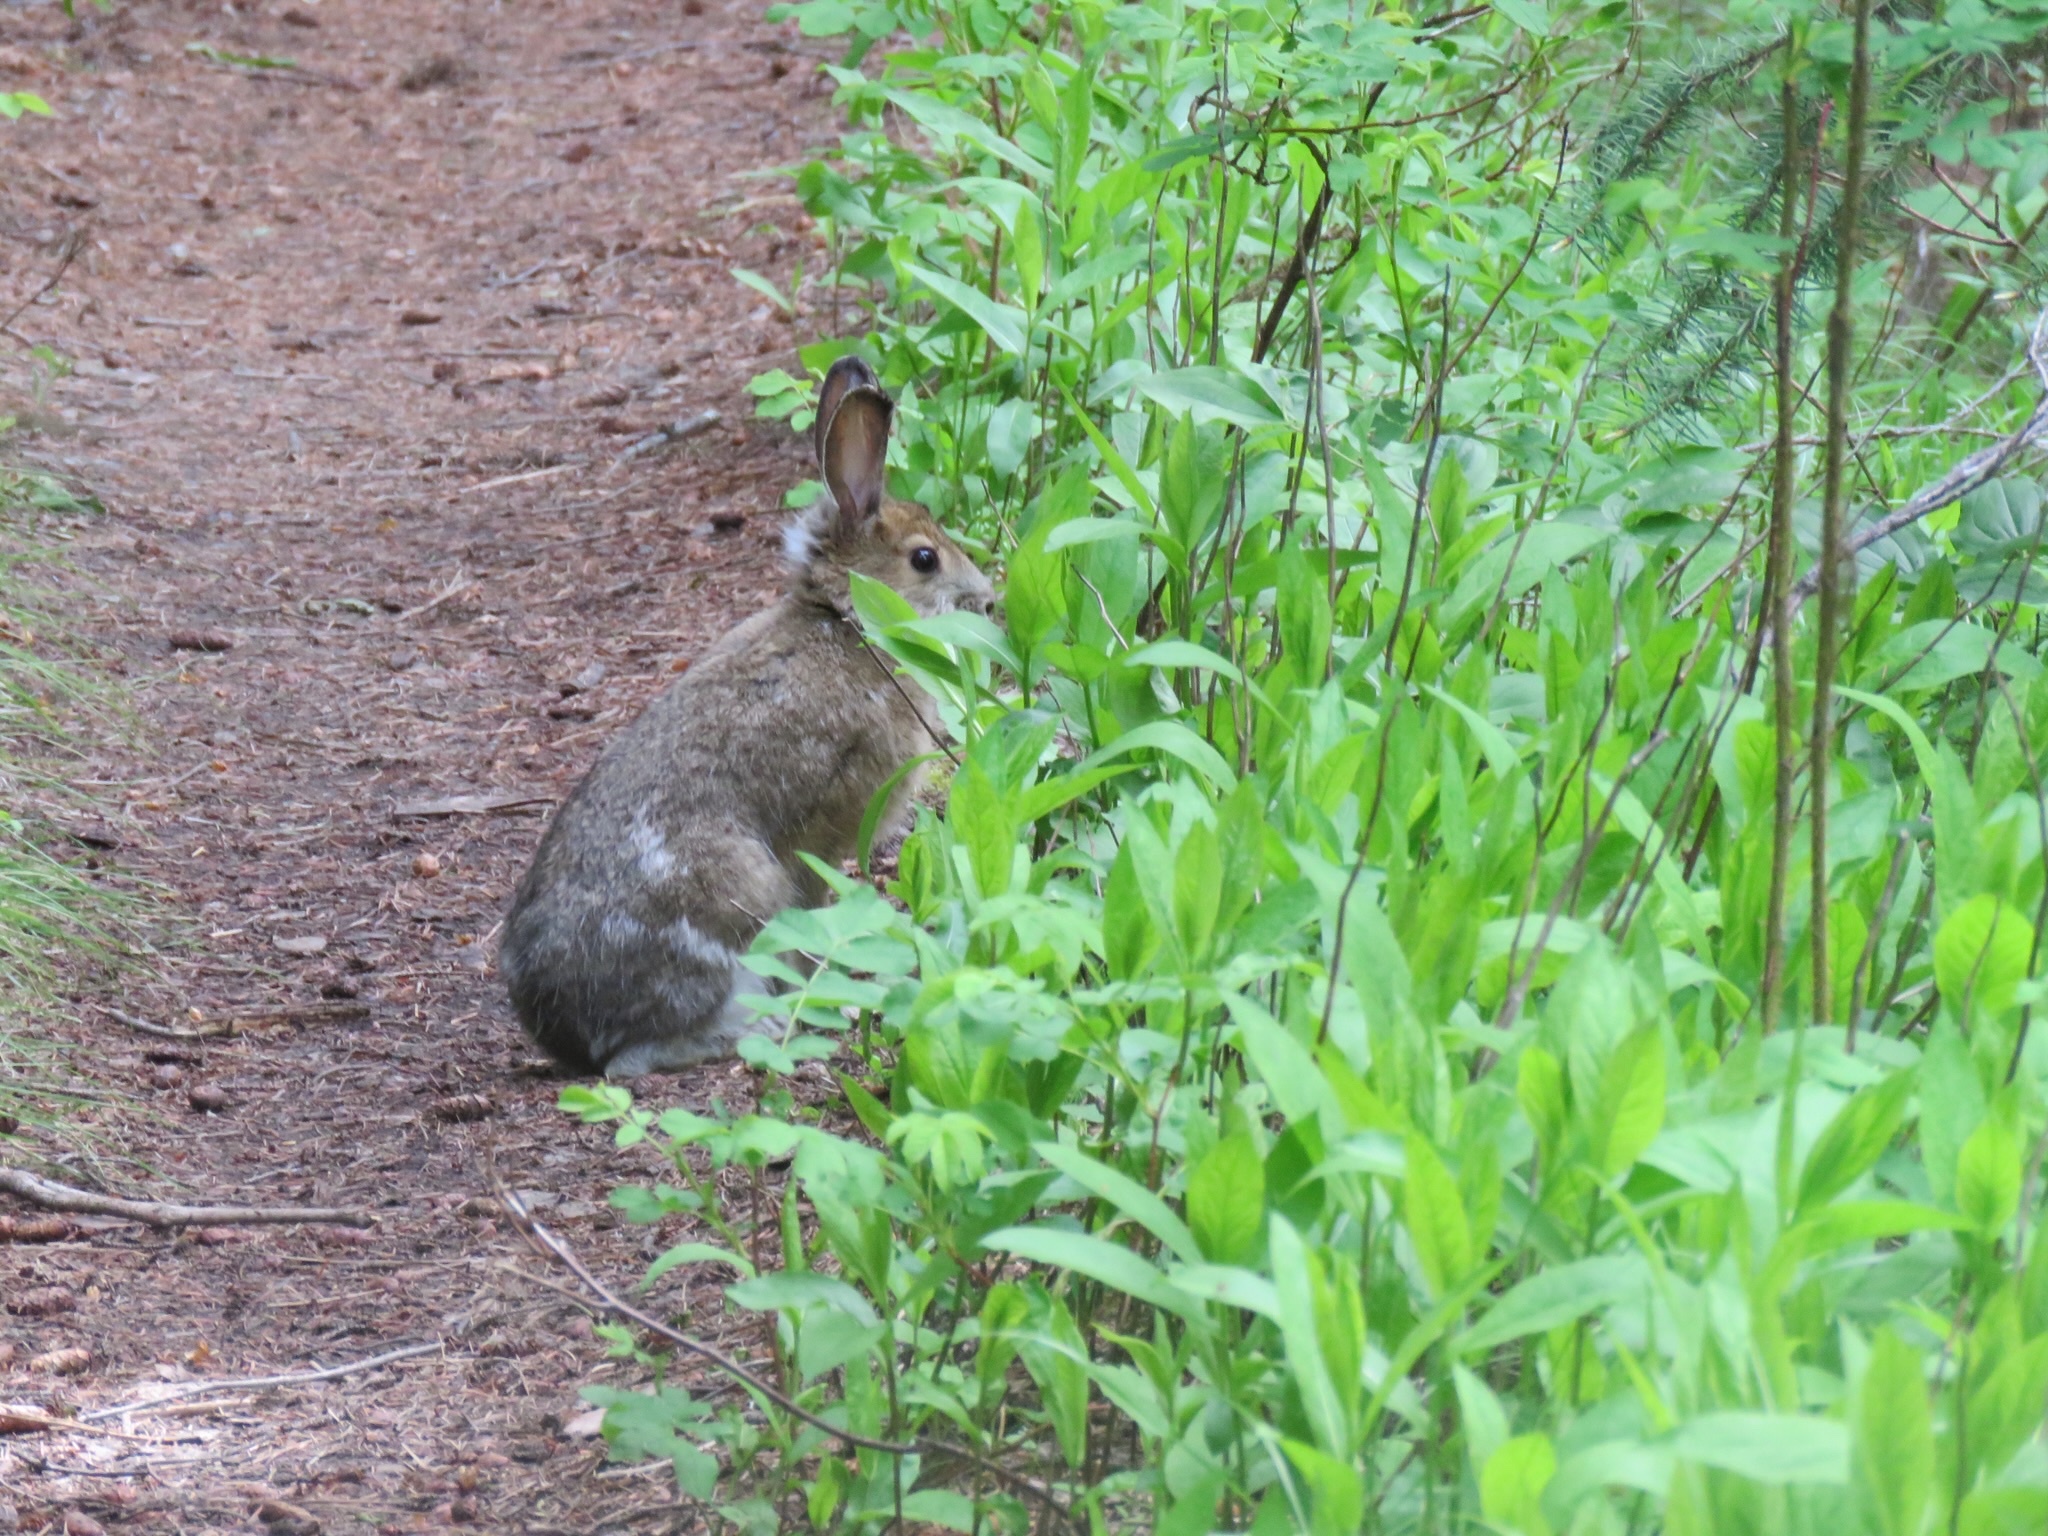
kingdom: Animalia
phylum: Chordata
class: Mammalia
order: Lagomorpha
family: Leporidae
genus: Lepus
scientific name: Lepus americanus
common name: Snowshoe hare
